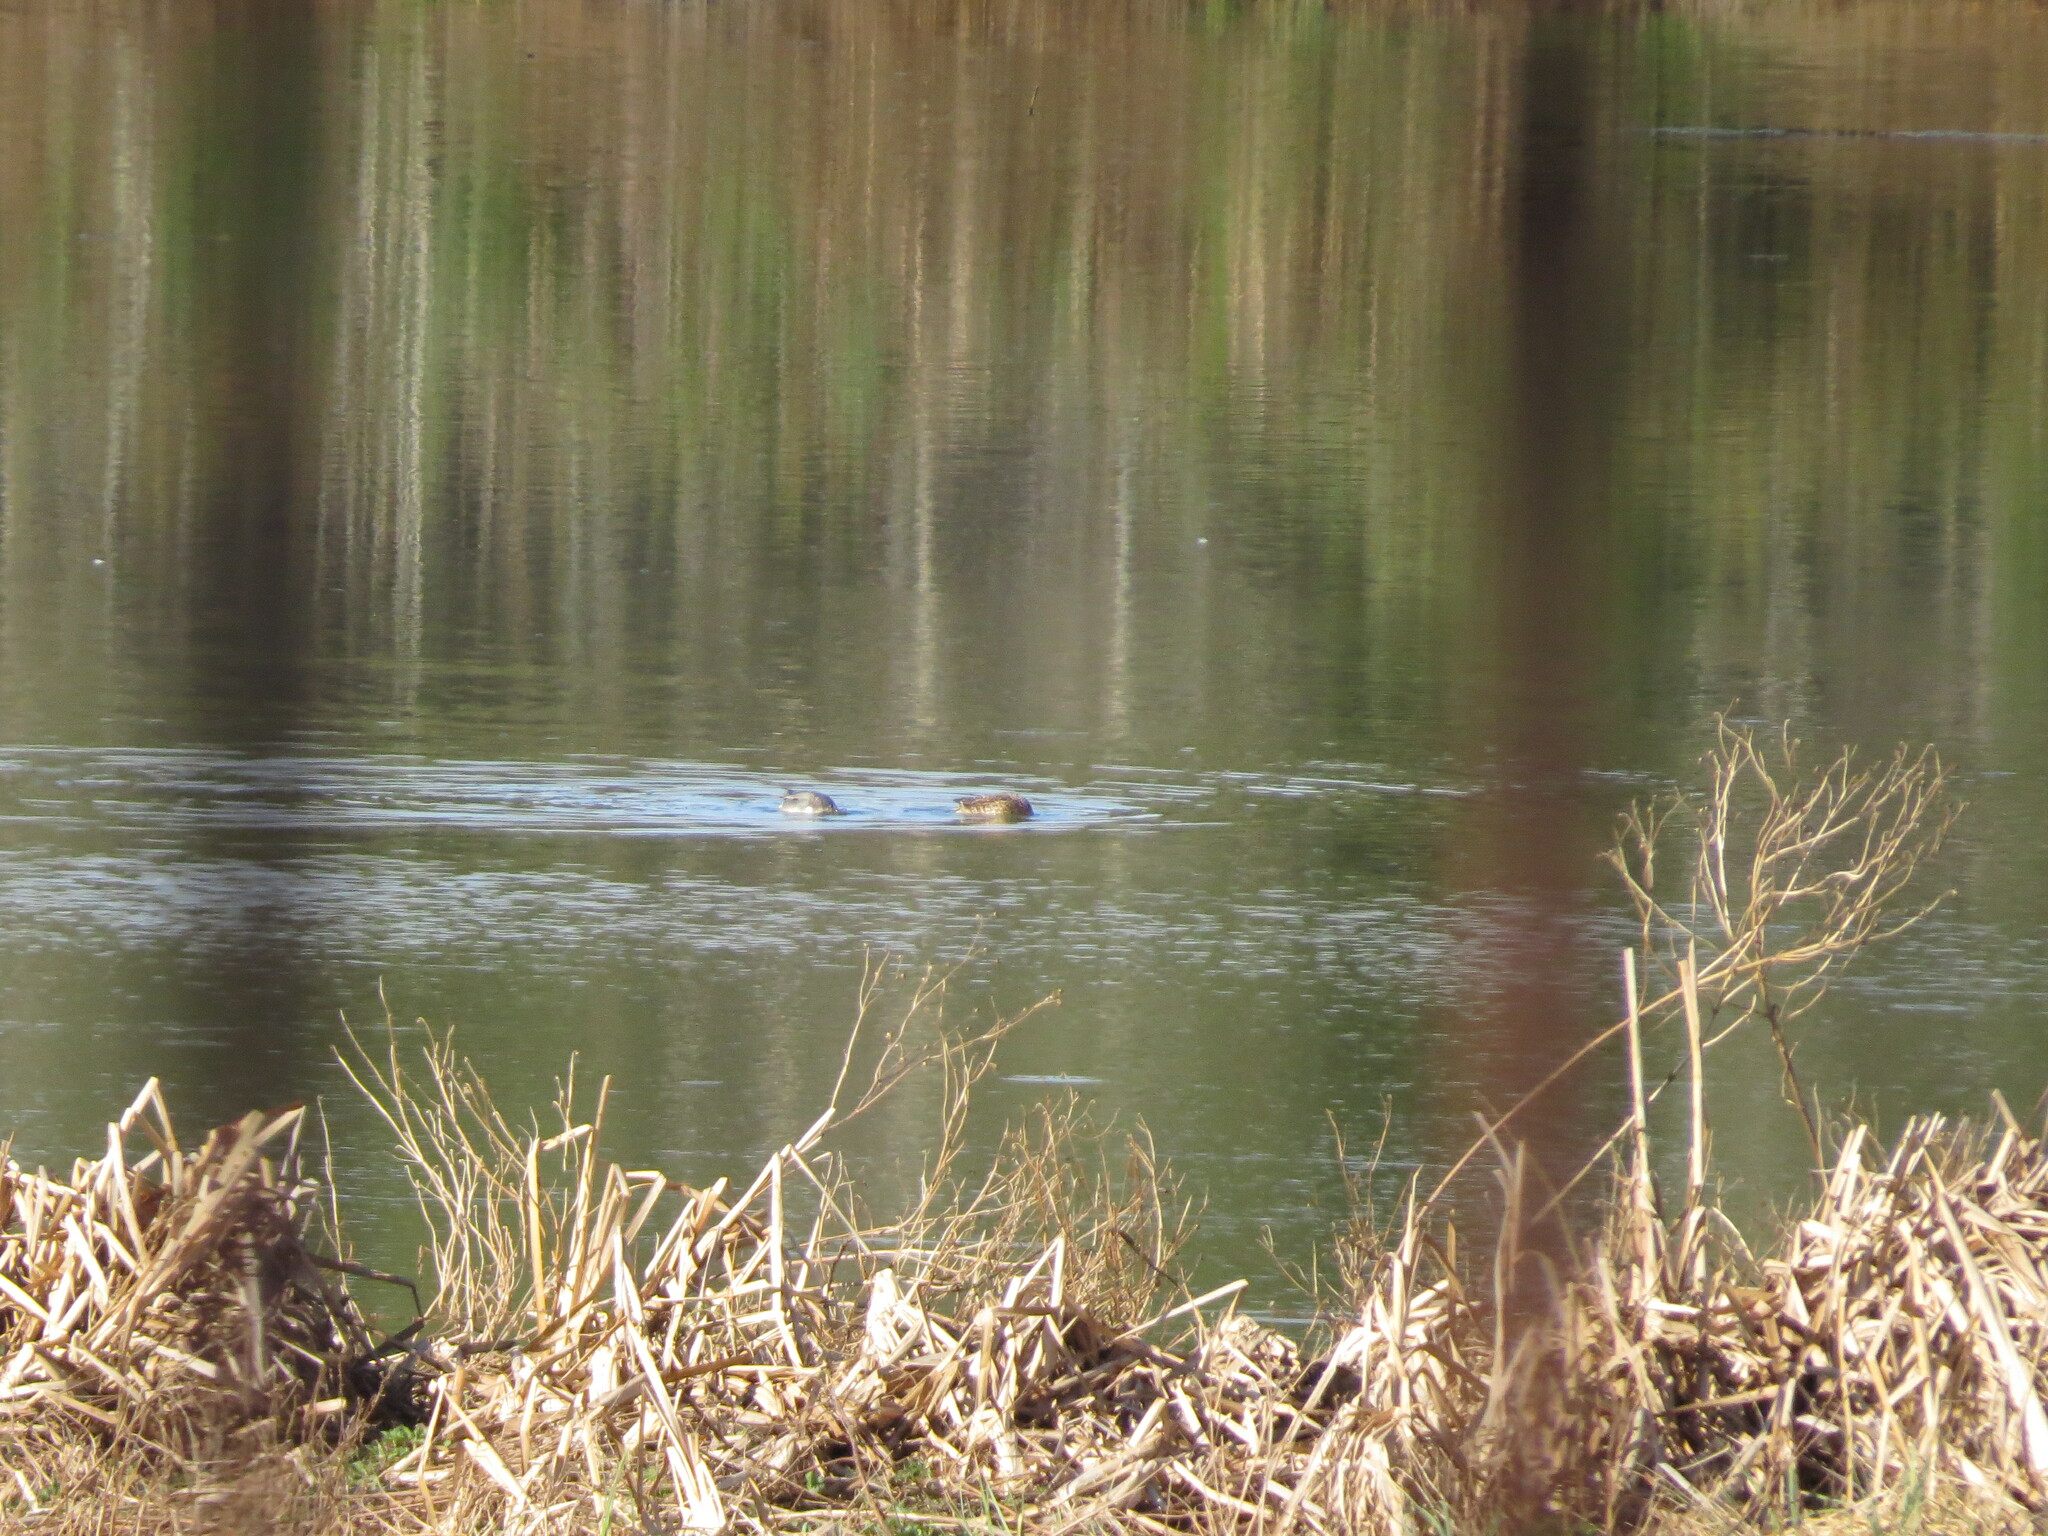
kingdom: Animalia
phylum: Chordata
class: Aves
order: Anseriformes
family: Anatidae
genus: Anas
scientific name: Anas crecca
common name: Eurasian teal
